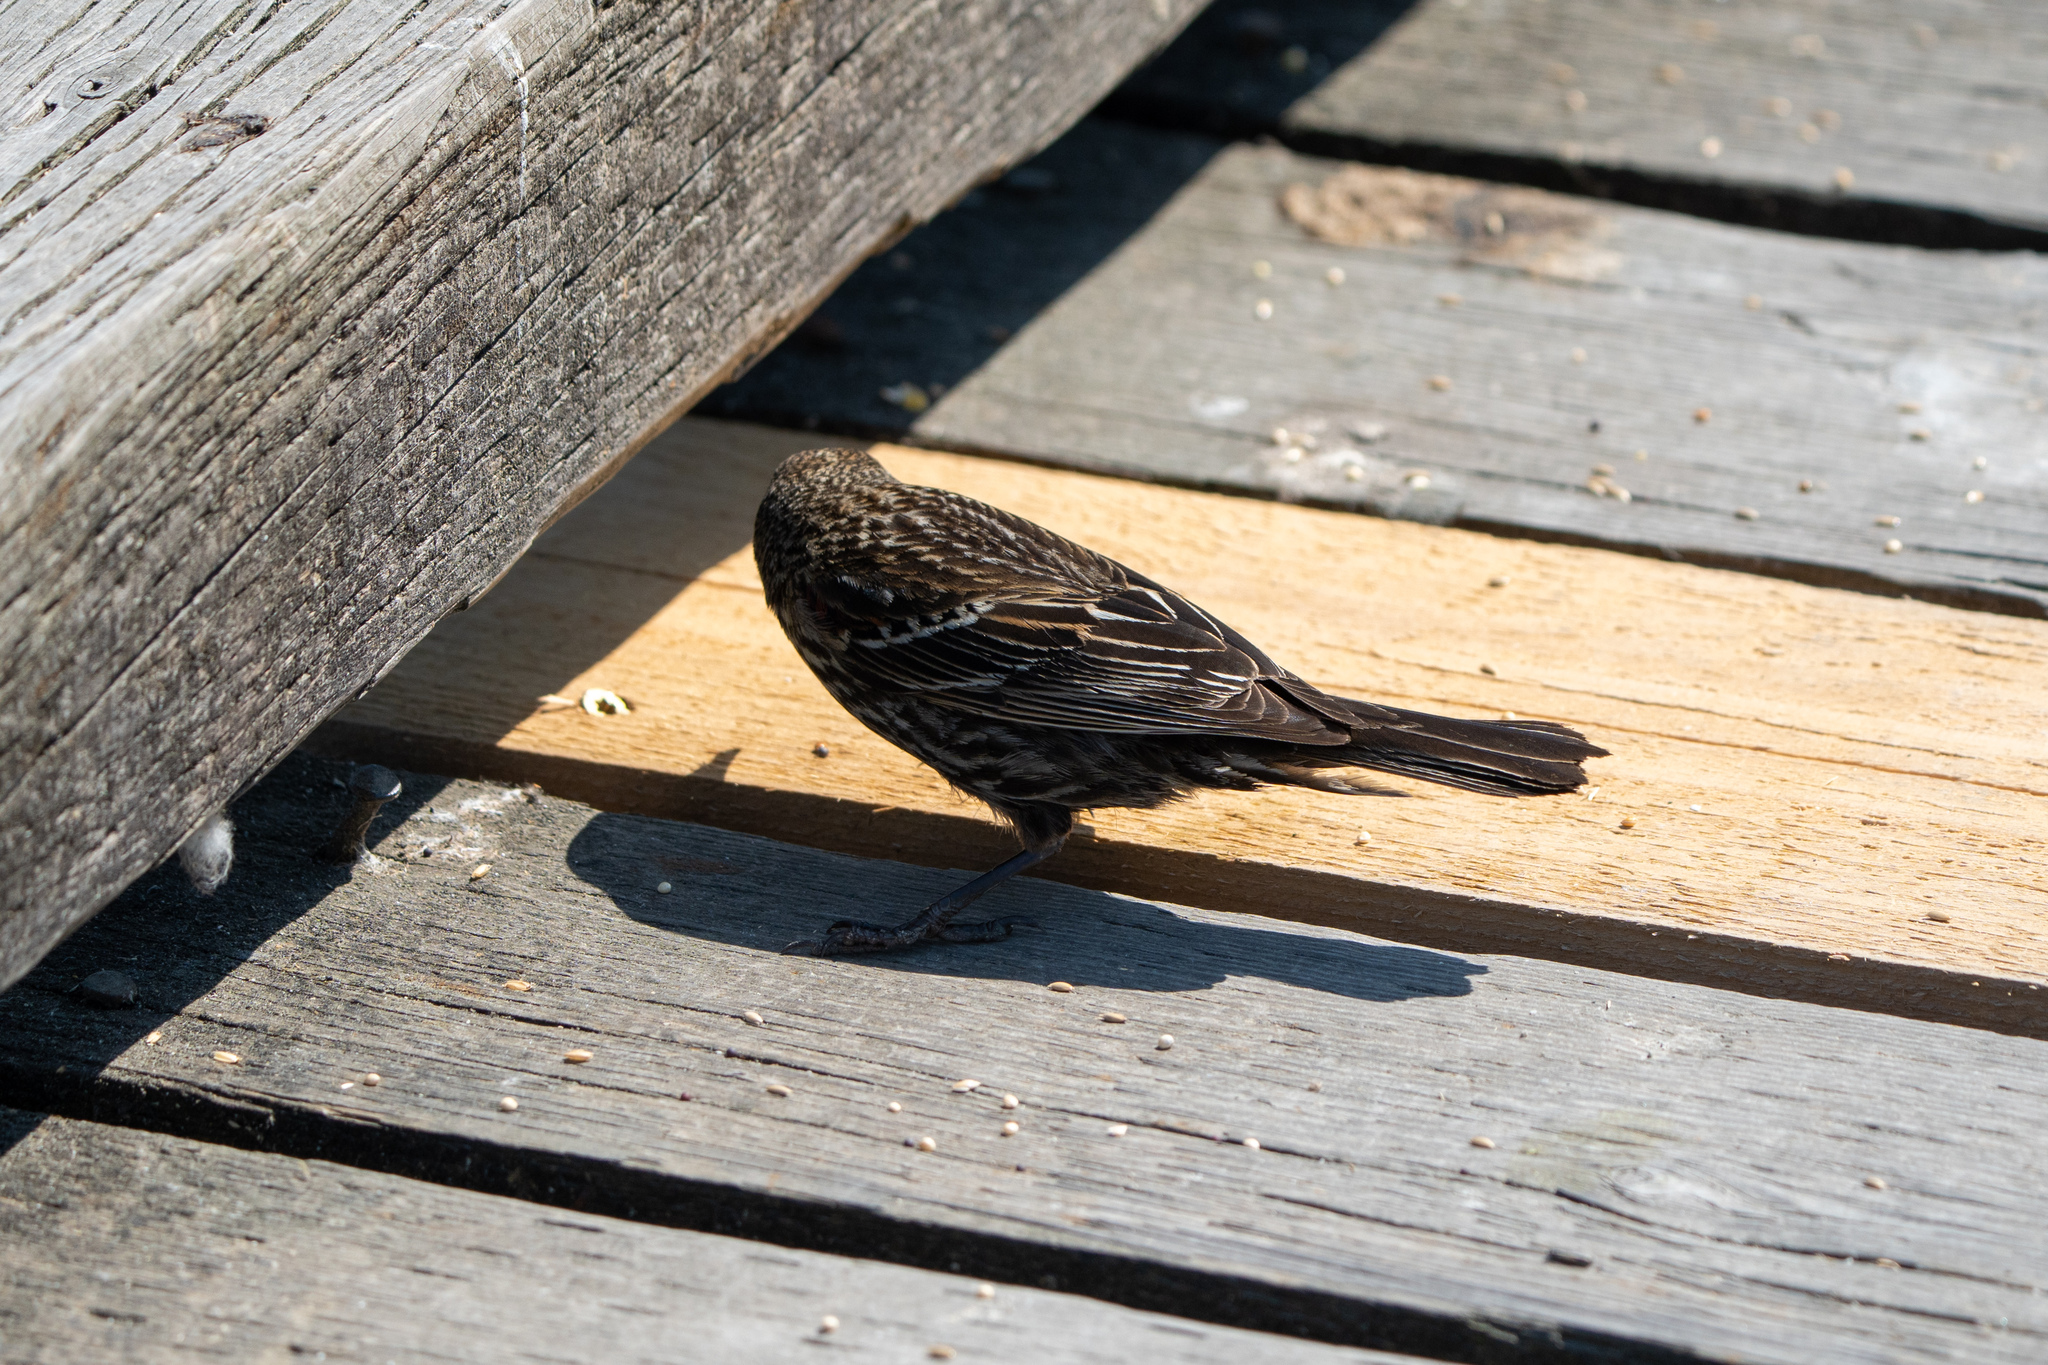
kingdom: Animalia
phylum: Chordata
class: Aves
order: Passeriformes
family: Icteridae
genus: Agelaius
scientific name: Agelaius phoeniceus
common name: Red-winged blackbird
